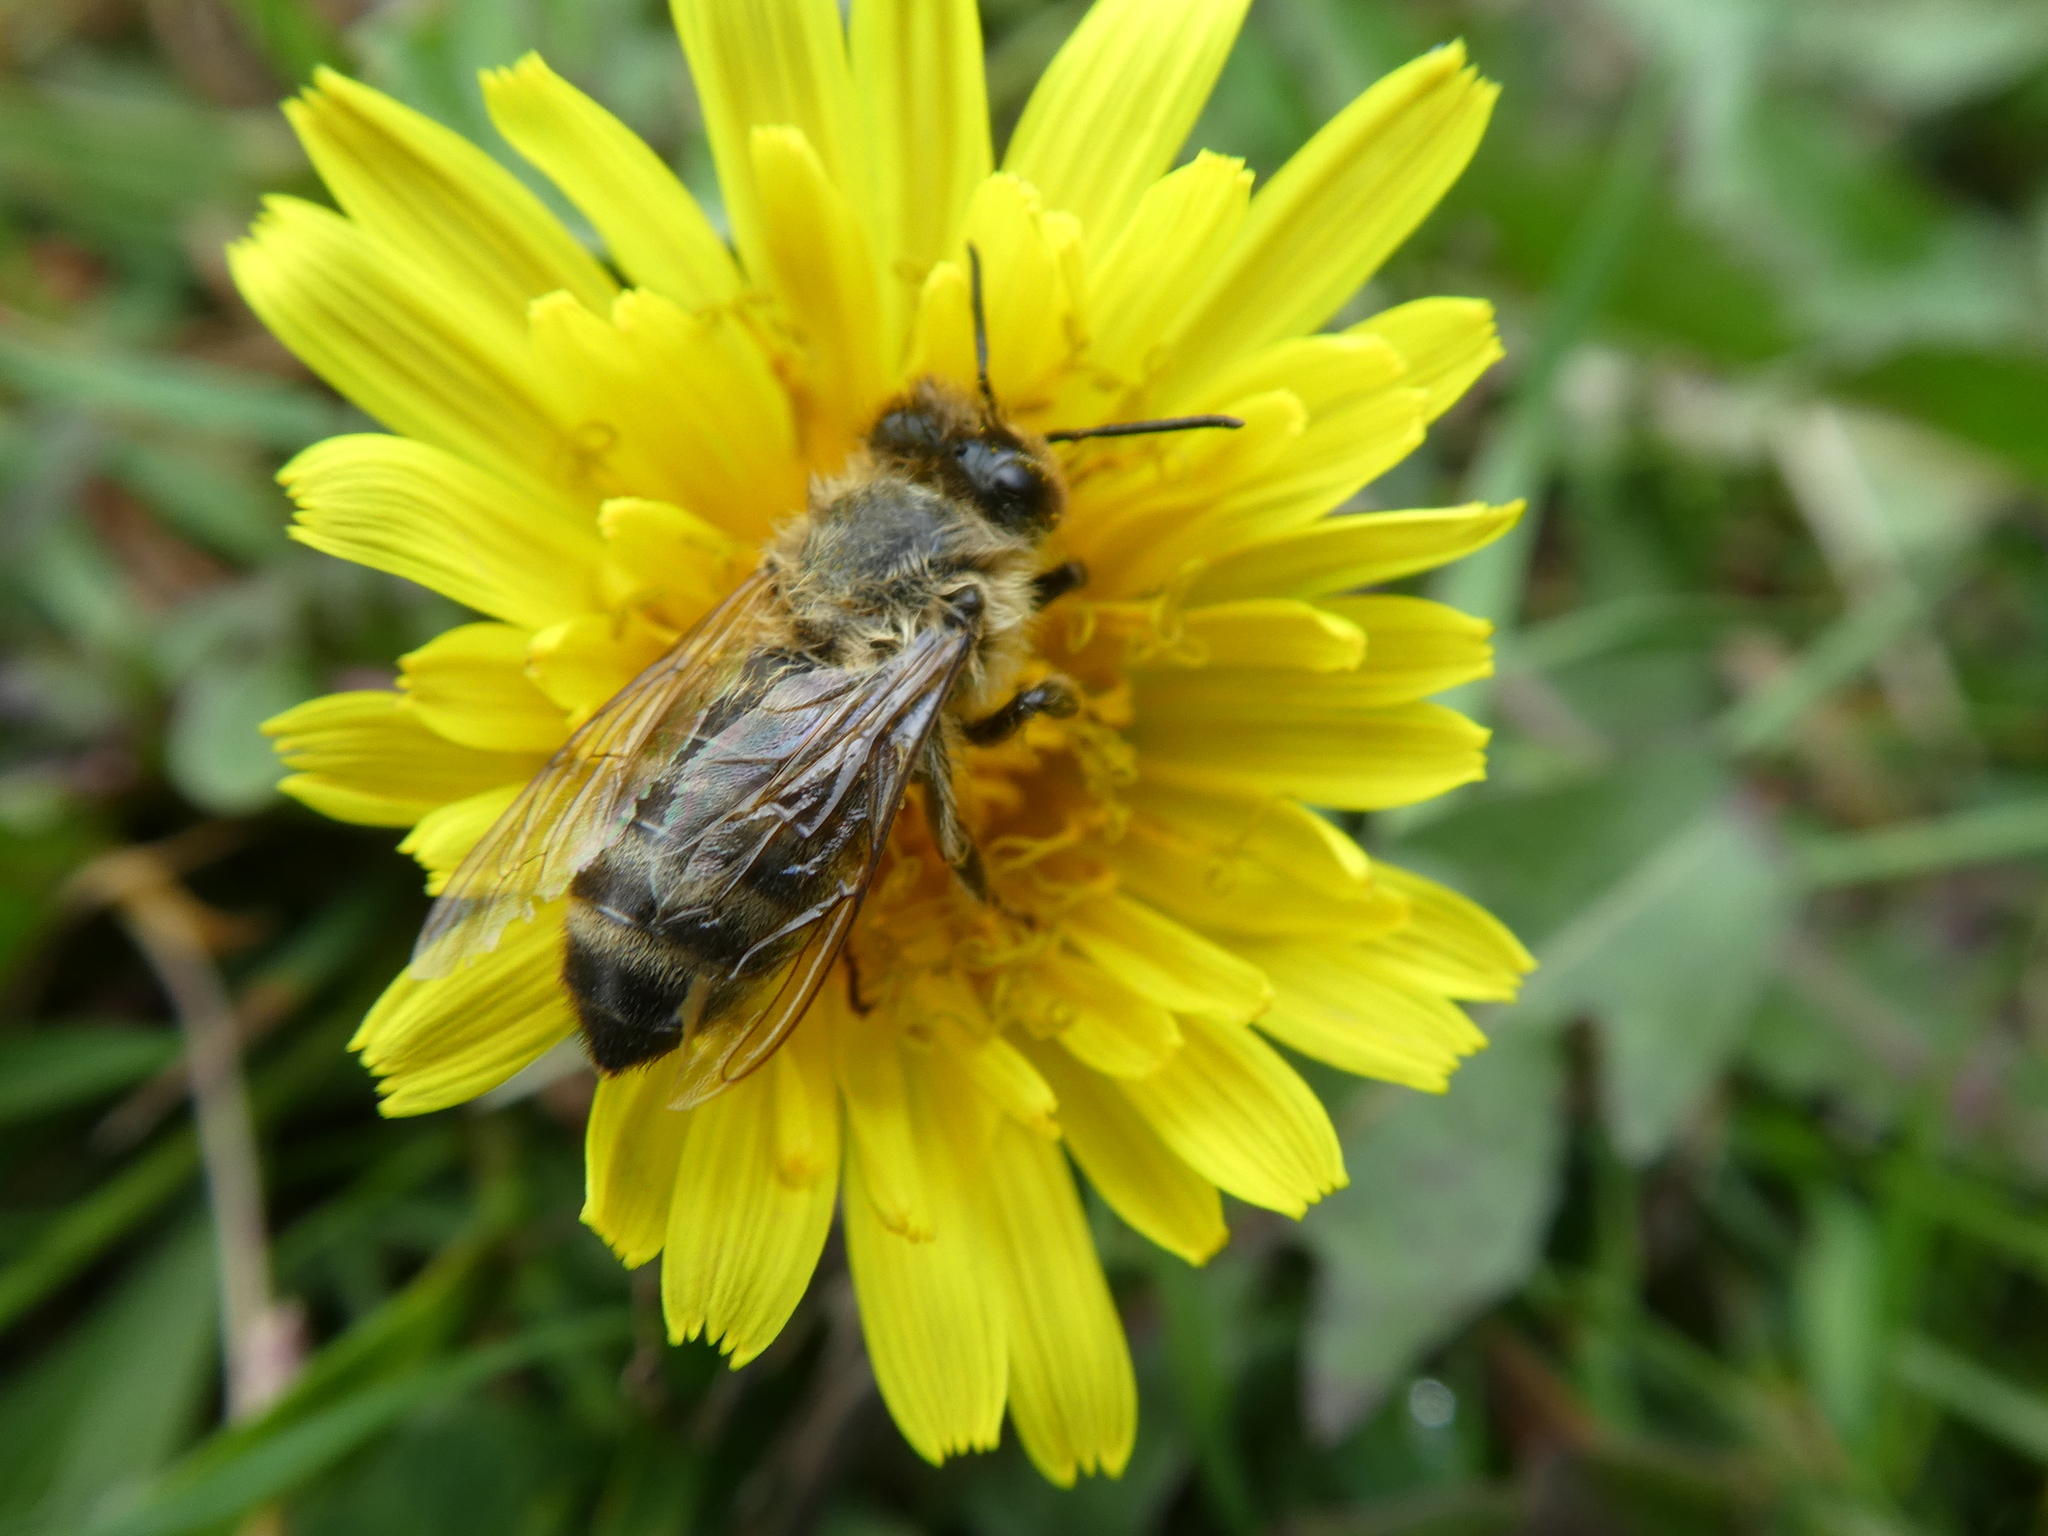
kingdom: Animalia
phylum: Arthropoda
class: Insecta
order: Hymenoptera
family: Apidae
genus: Apis
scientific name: Apis mellifera
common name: Honey bee
